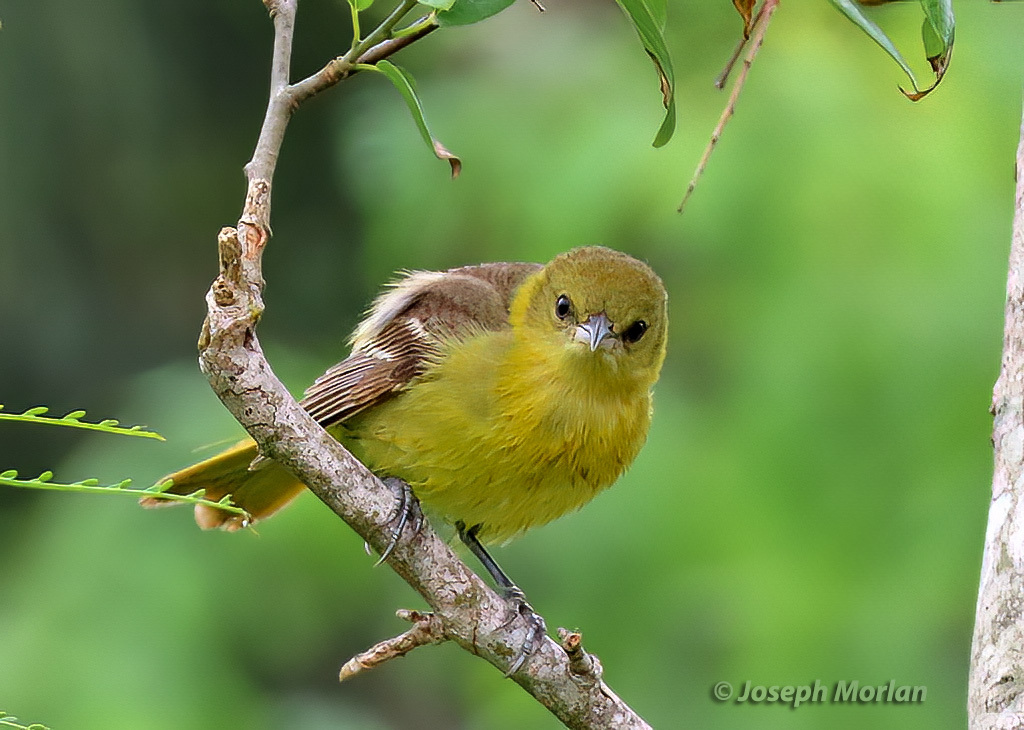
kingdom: Animalia
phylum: Chordata
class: Aves
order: Passeriformes
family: Icteridae
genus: Icterus
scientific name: Icterus spurius
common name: Orchard oriole
